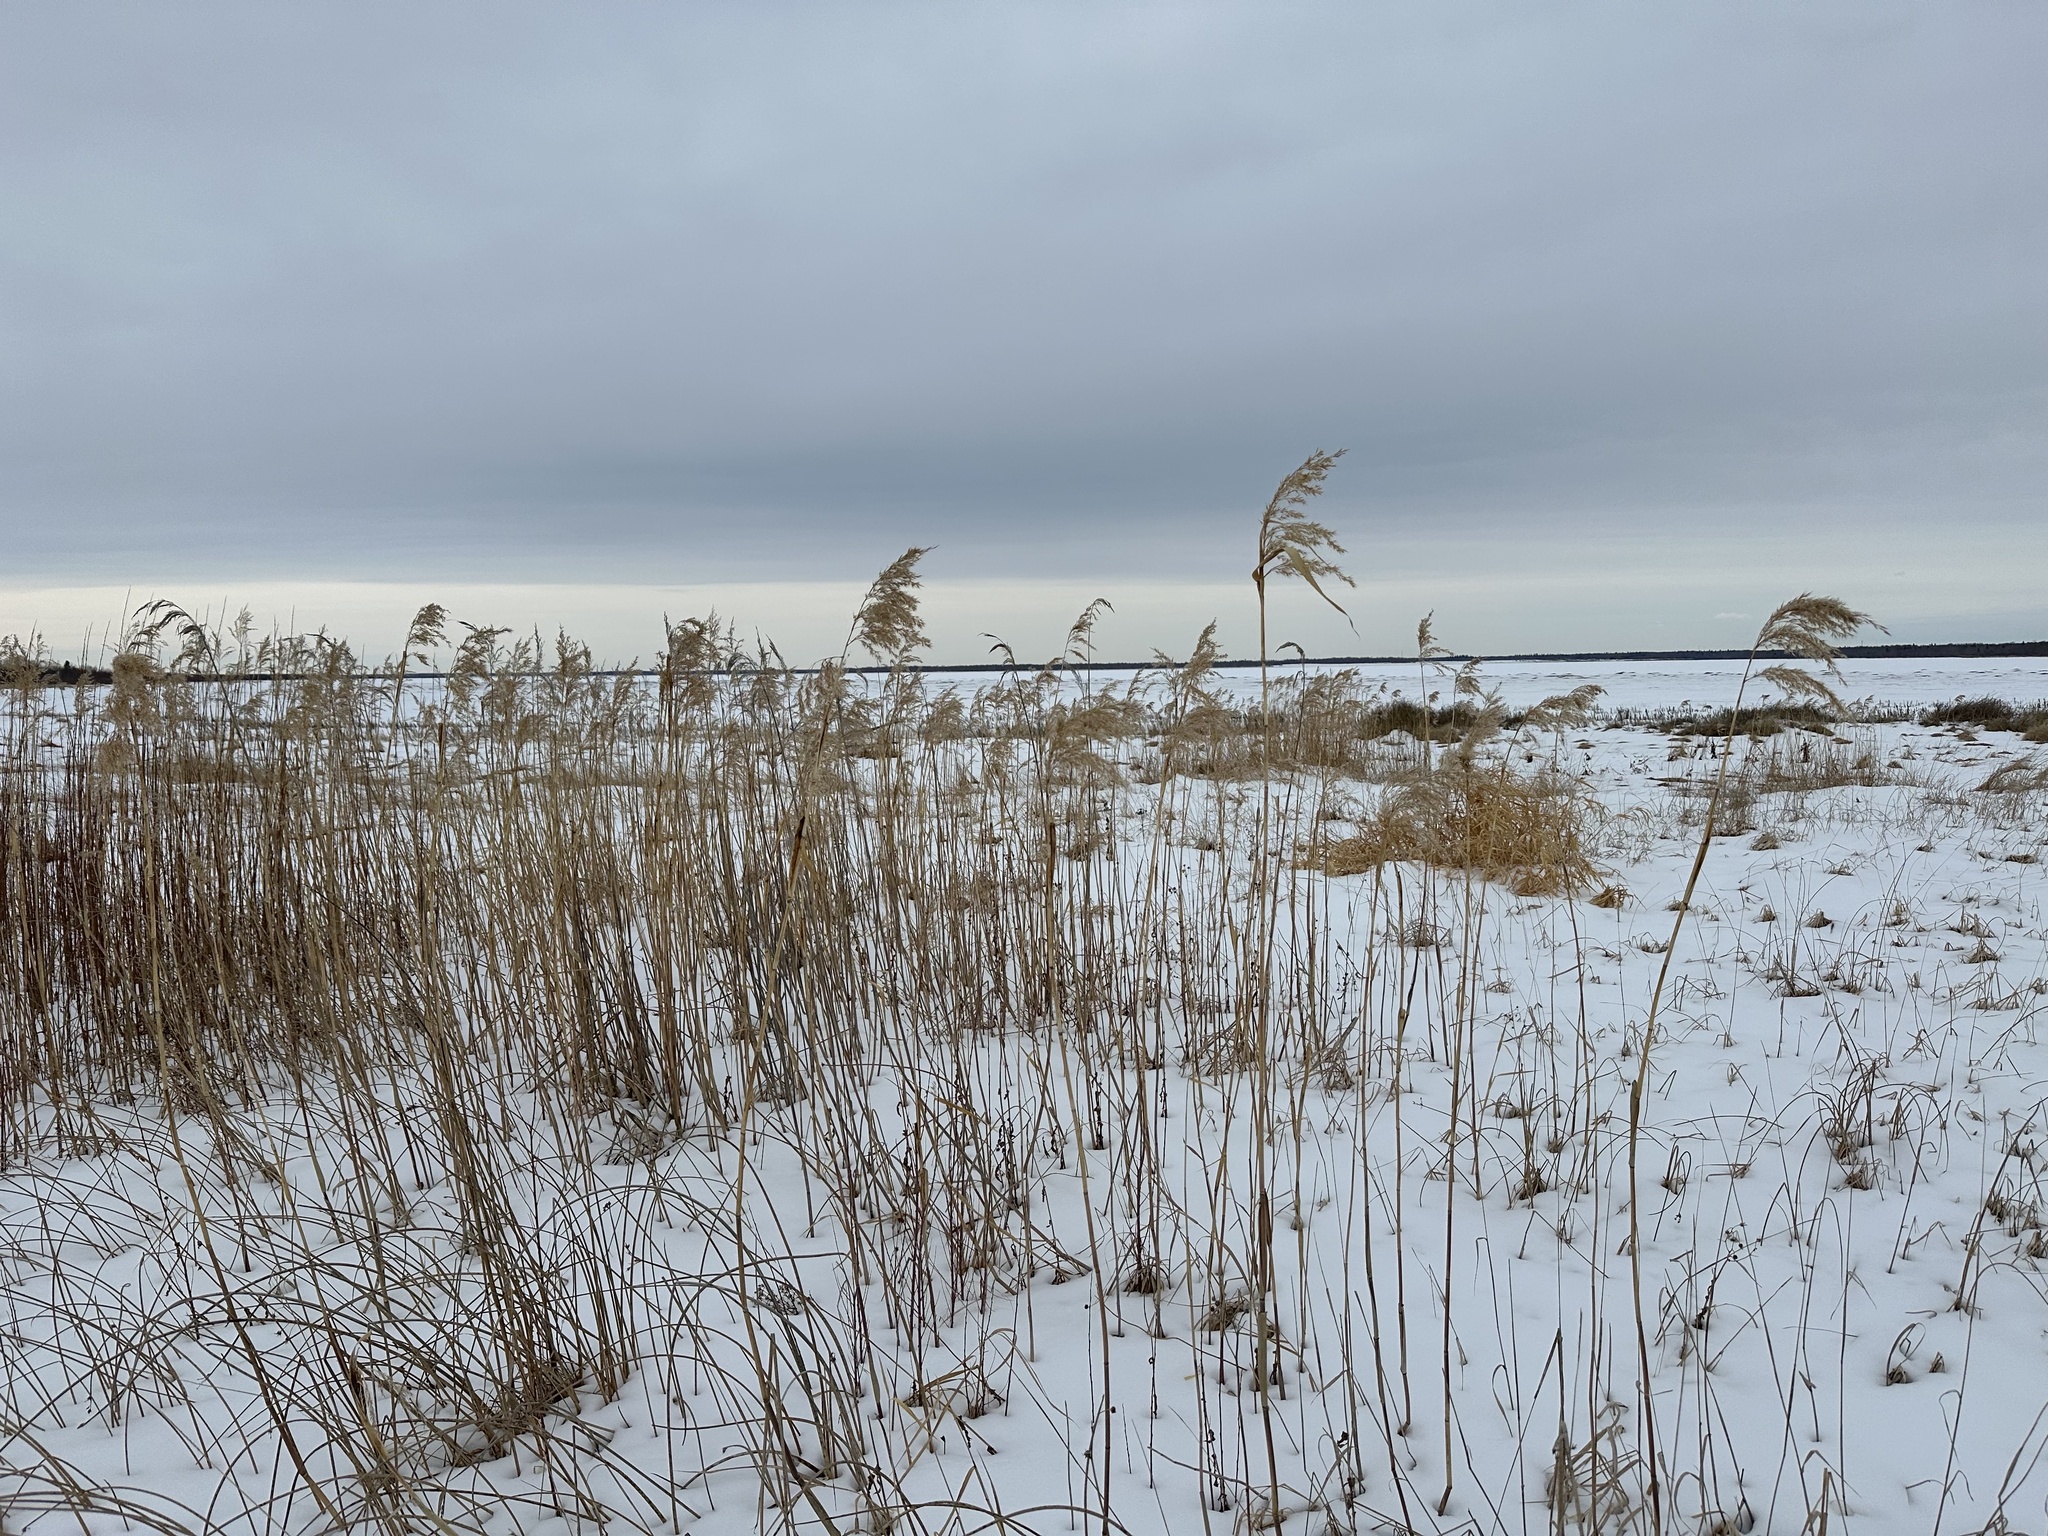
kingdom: Plantae
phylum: Tracheophyta
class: Liliopsida
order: Poales
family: Poaceae
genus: Phragmites
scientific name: Phragmites australis
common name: Common reed
